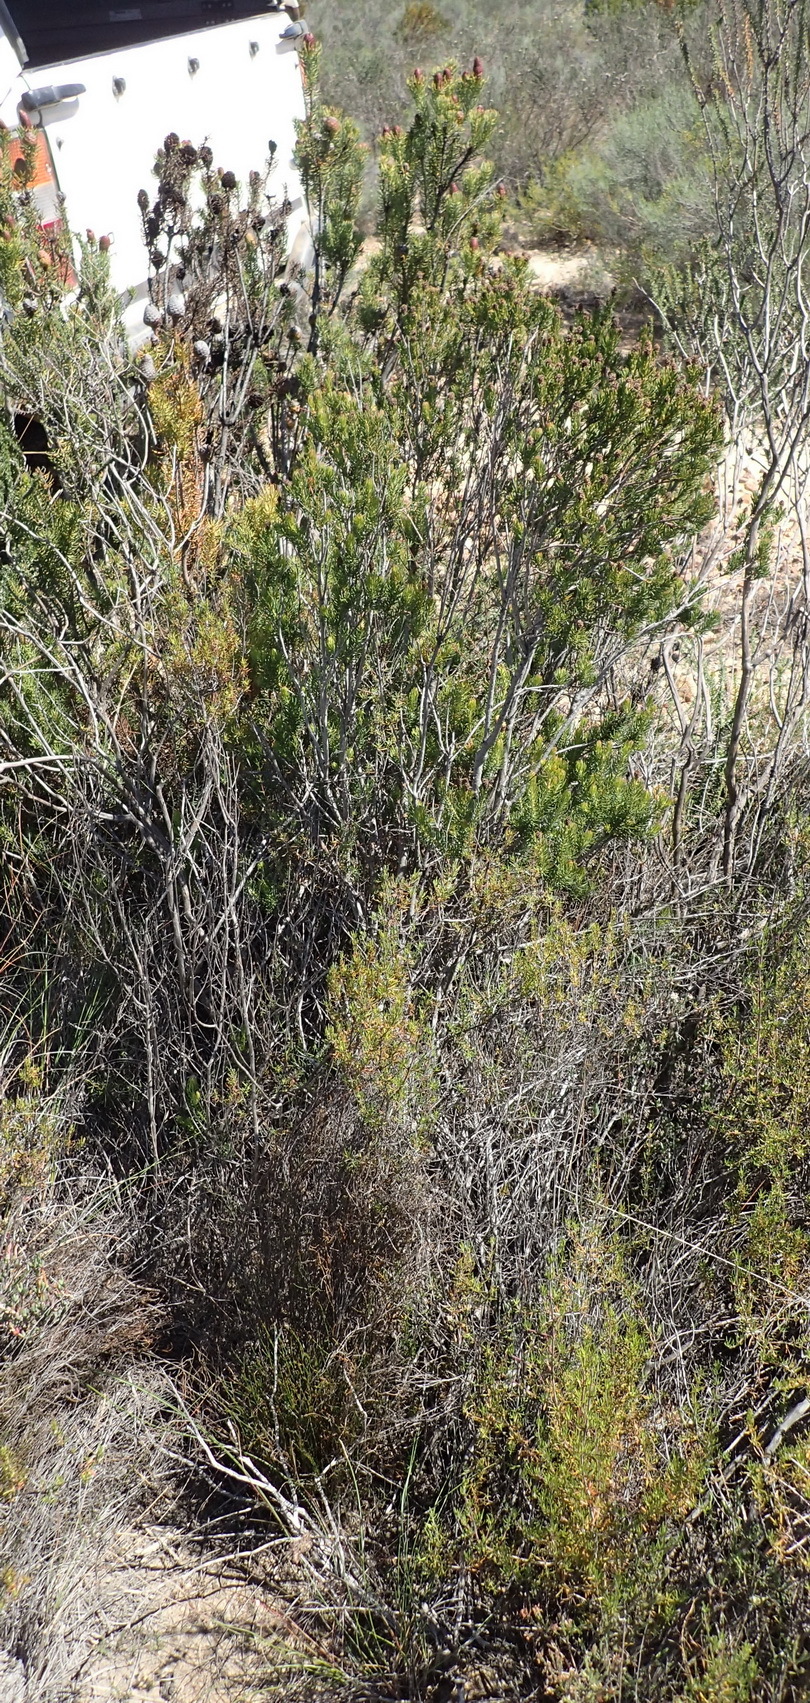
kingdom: Plantae
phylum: Tracheophyta
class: Magnoliopsida
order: Proteales
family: Proteaceae
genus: Leucadendron
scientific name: Leucadendron teretifolium
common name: Needle-leaf conebush
